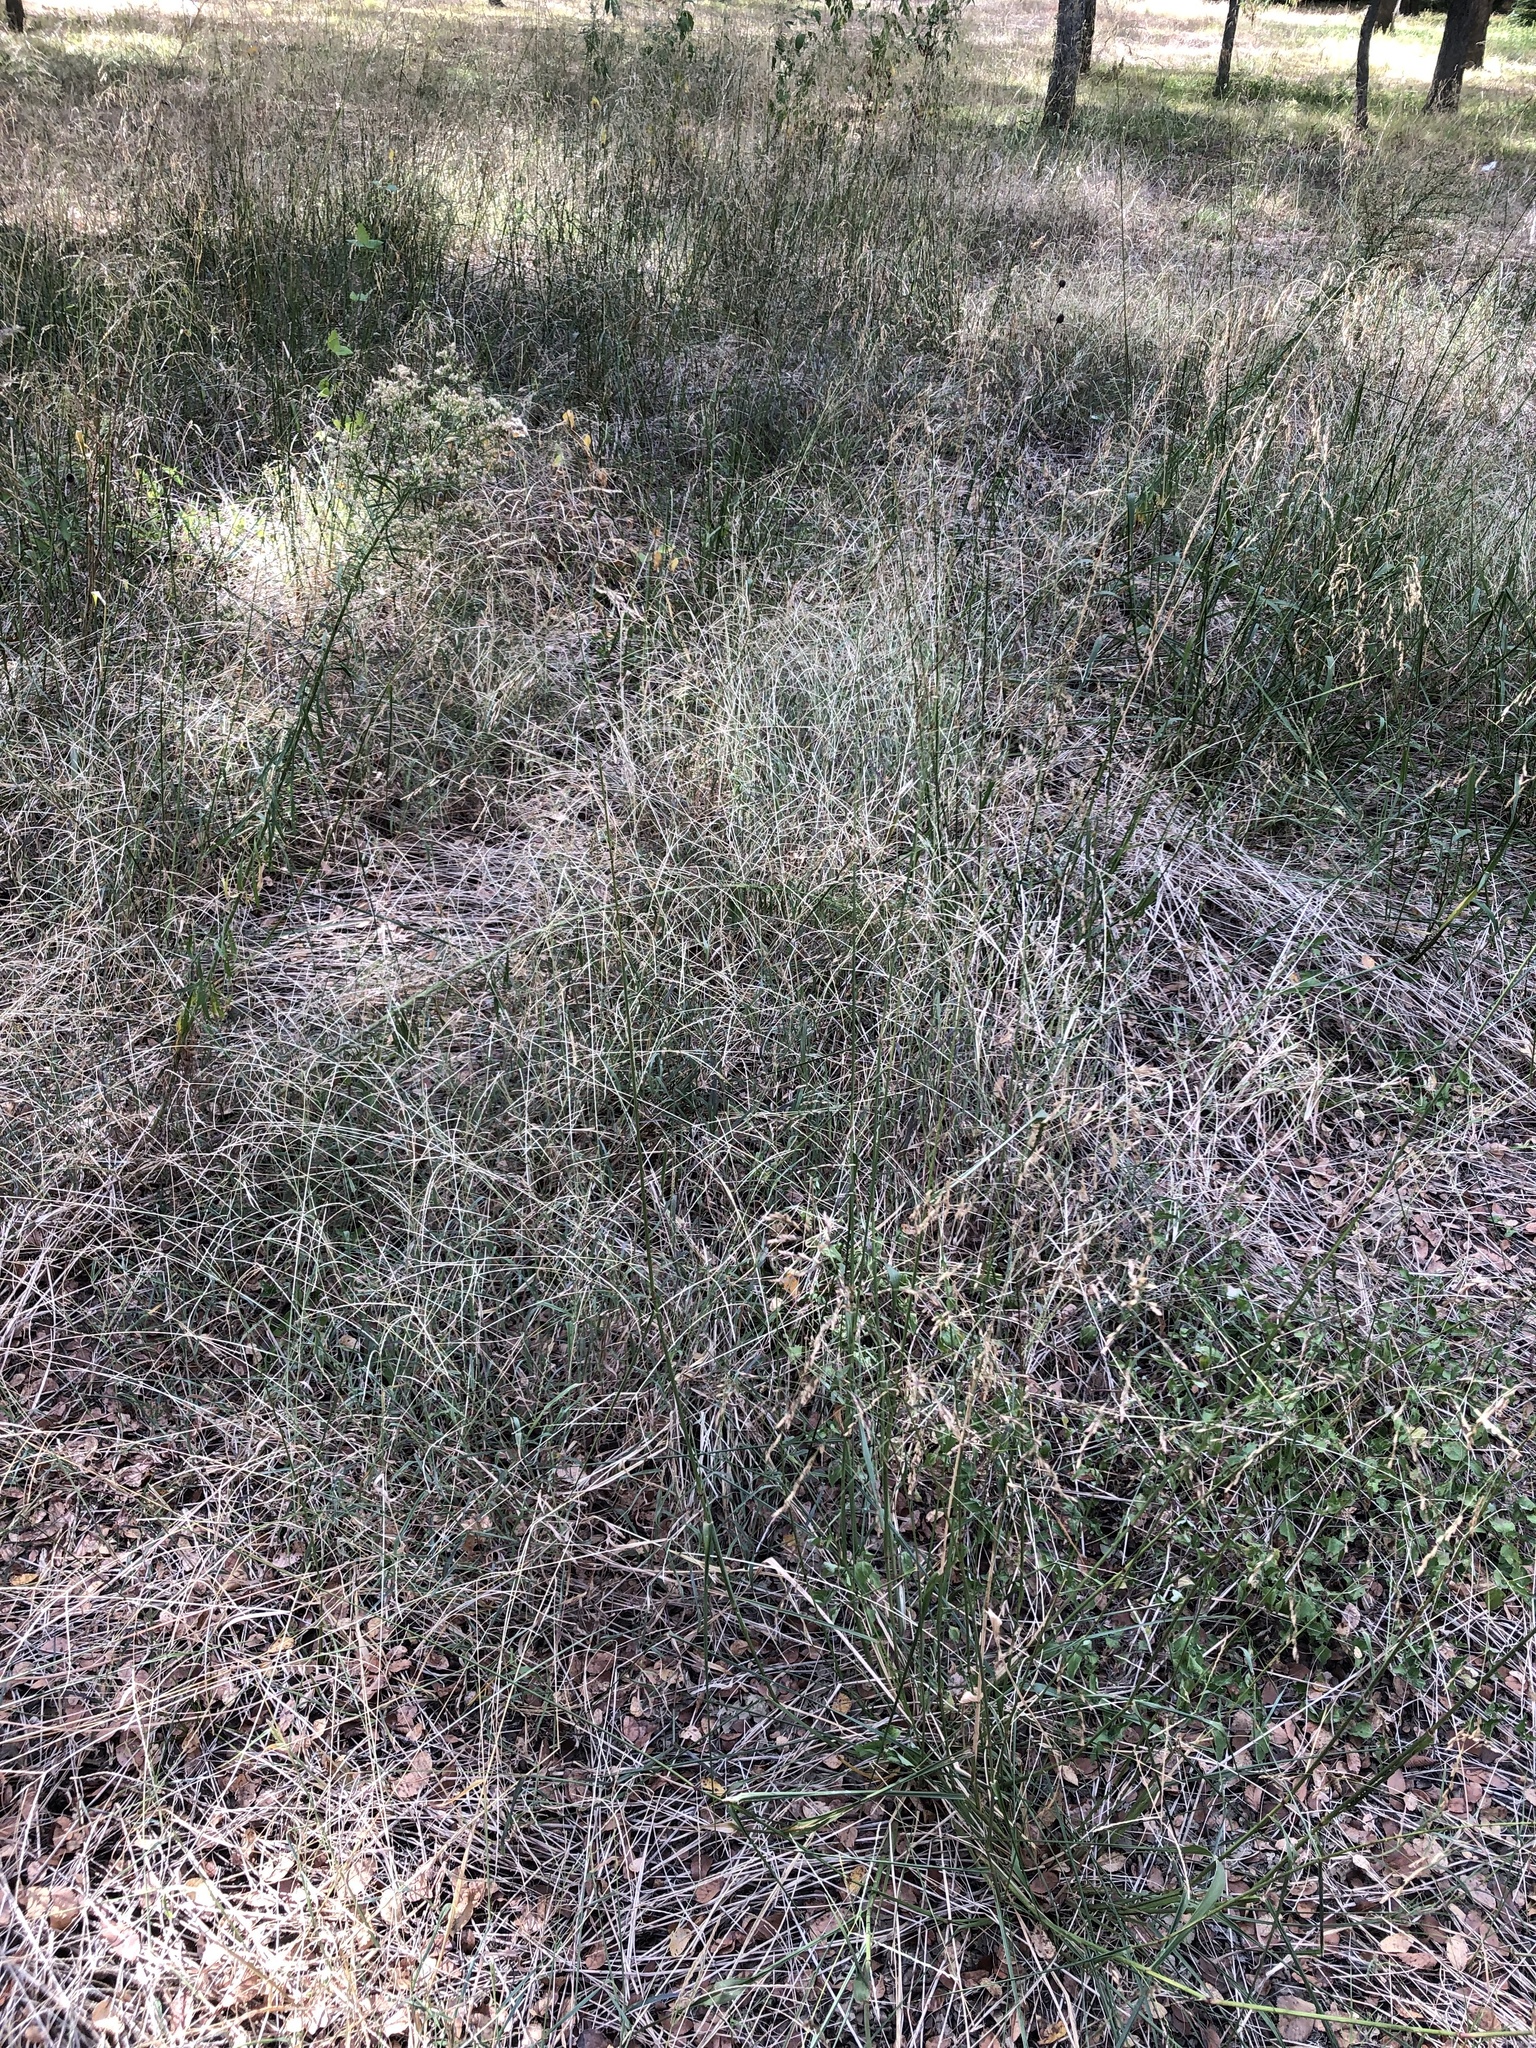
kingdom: Plantae
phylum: Tracheophyta
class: Liliopsida
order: Poales
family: Poaceae
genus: Tridens
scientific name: Tridens flavus
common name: Purpletop
